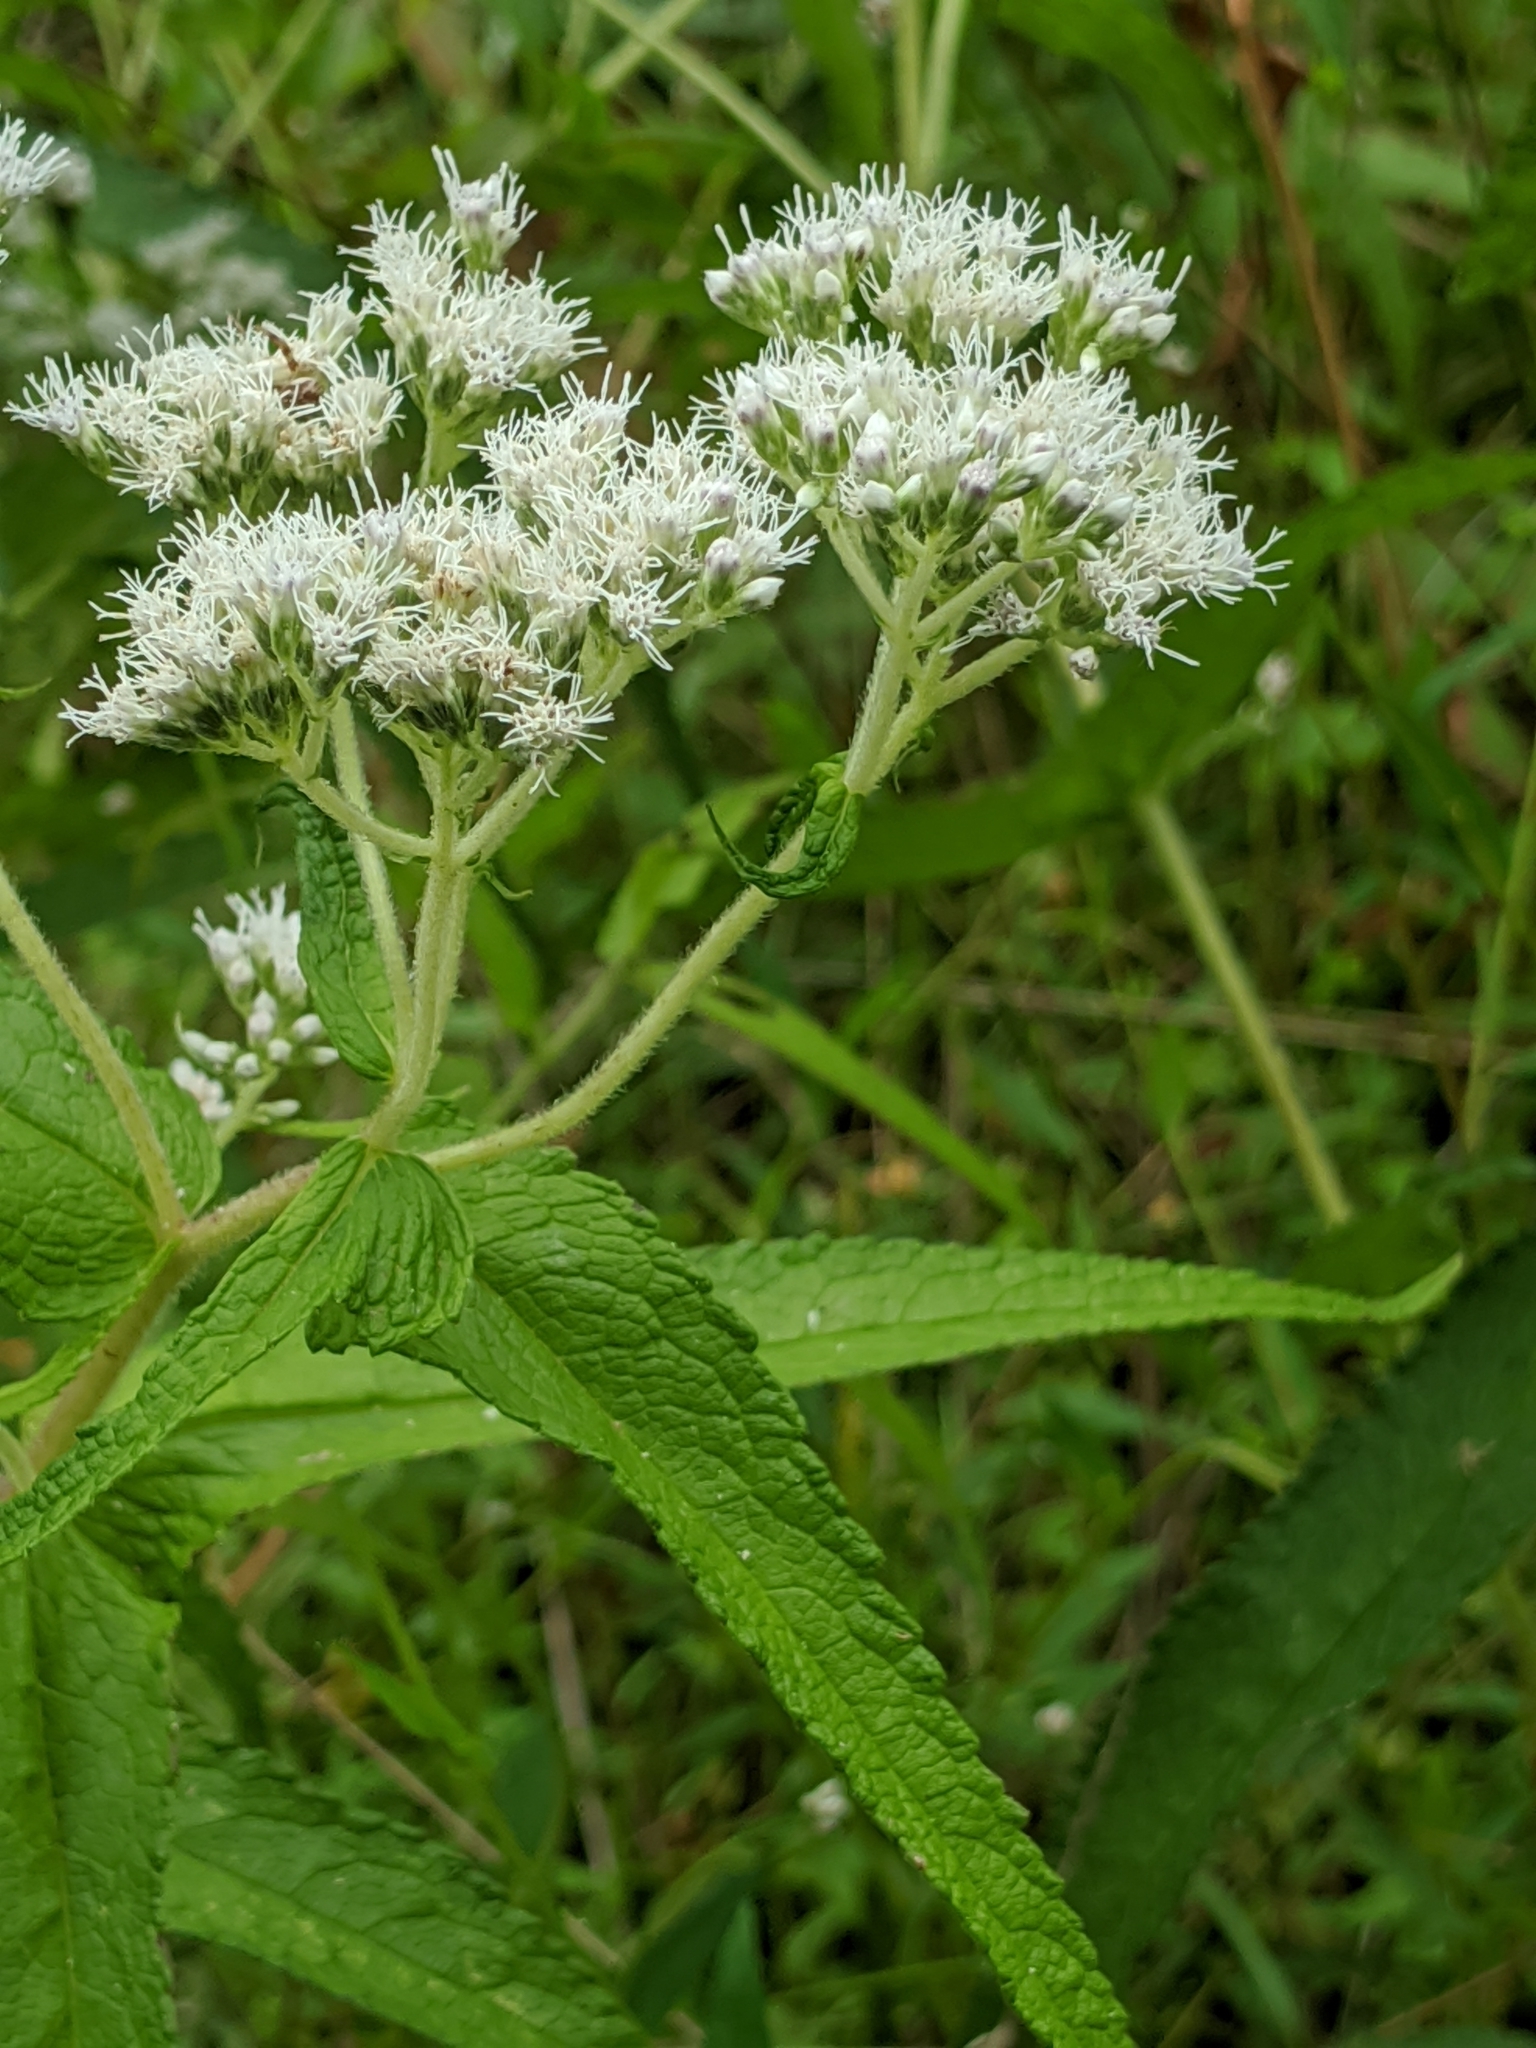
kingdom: Plantae
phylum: Tracheophyta
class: Magnoliopsida
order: Asterales
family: Asteraceae
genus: Eupatorium
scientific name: Eupatorium perfoliatum
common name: Boneset
